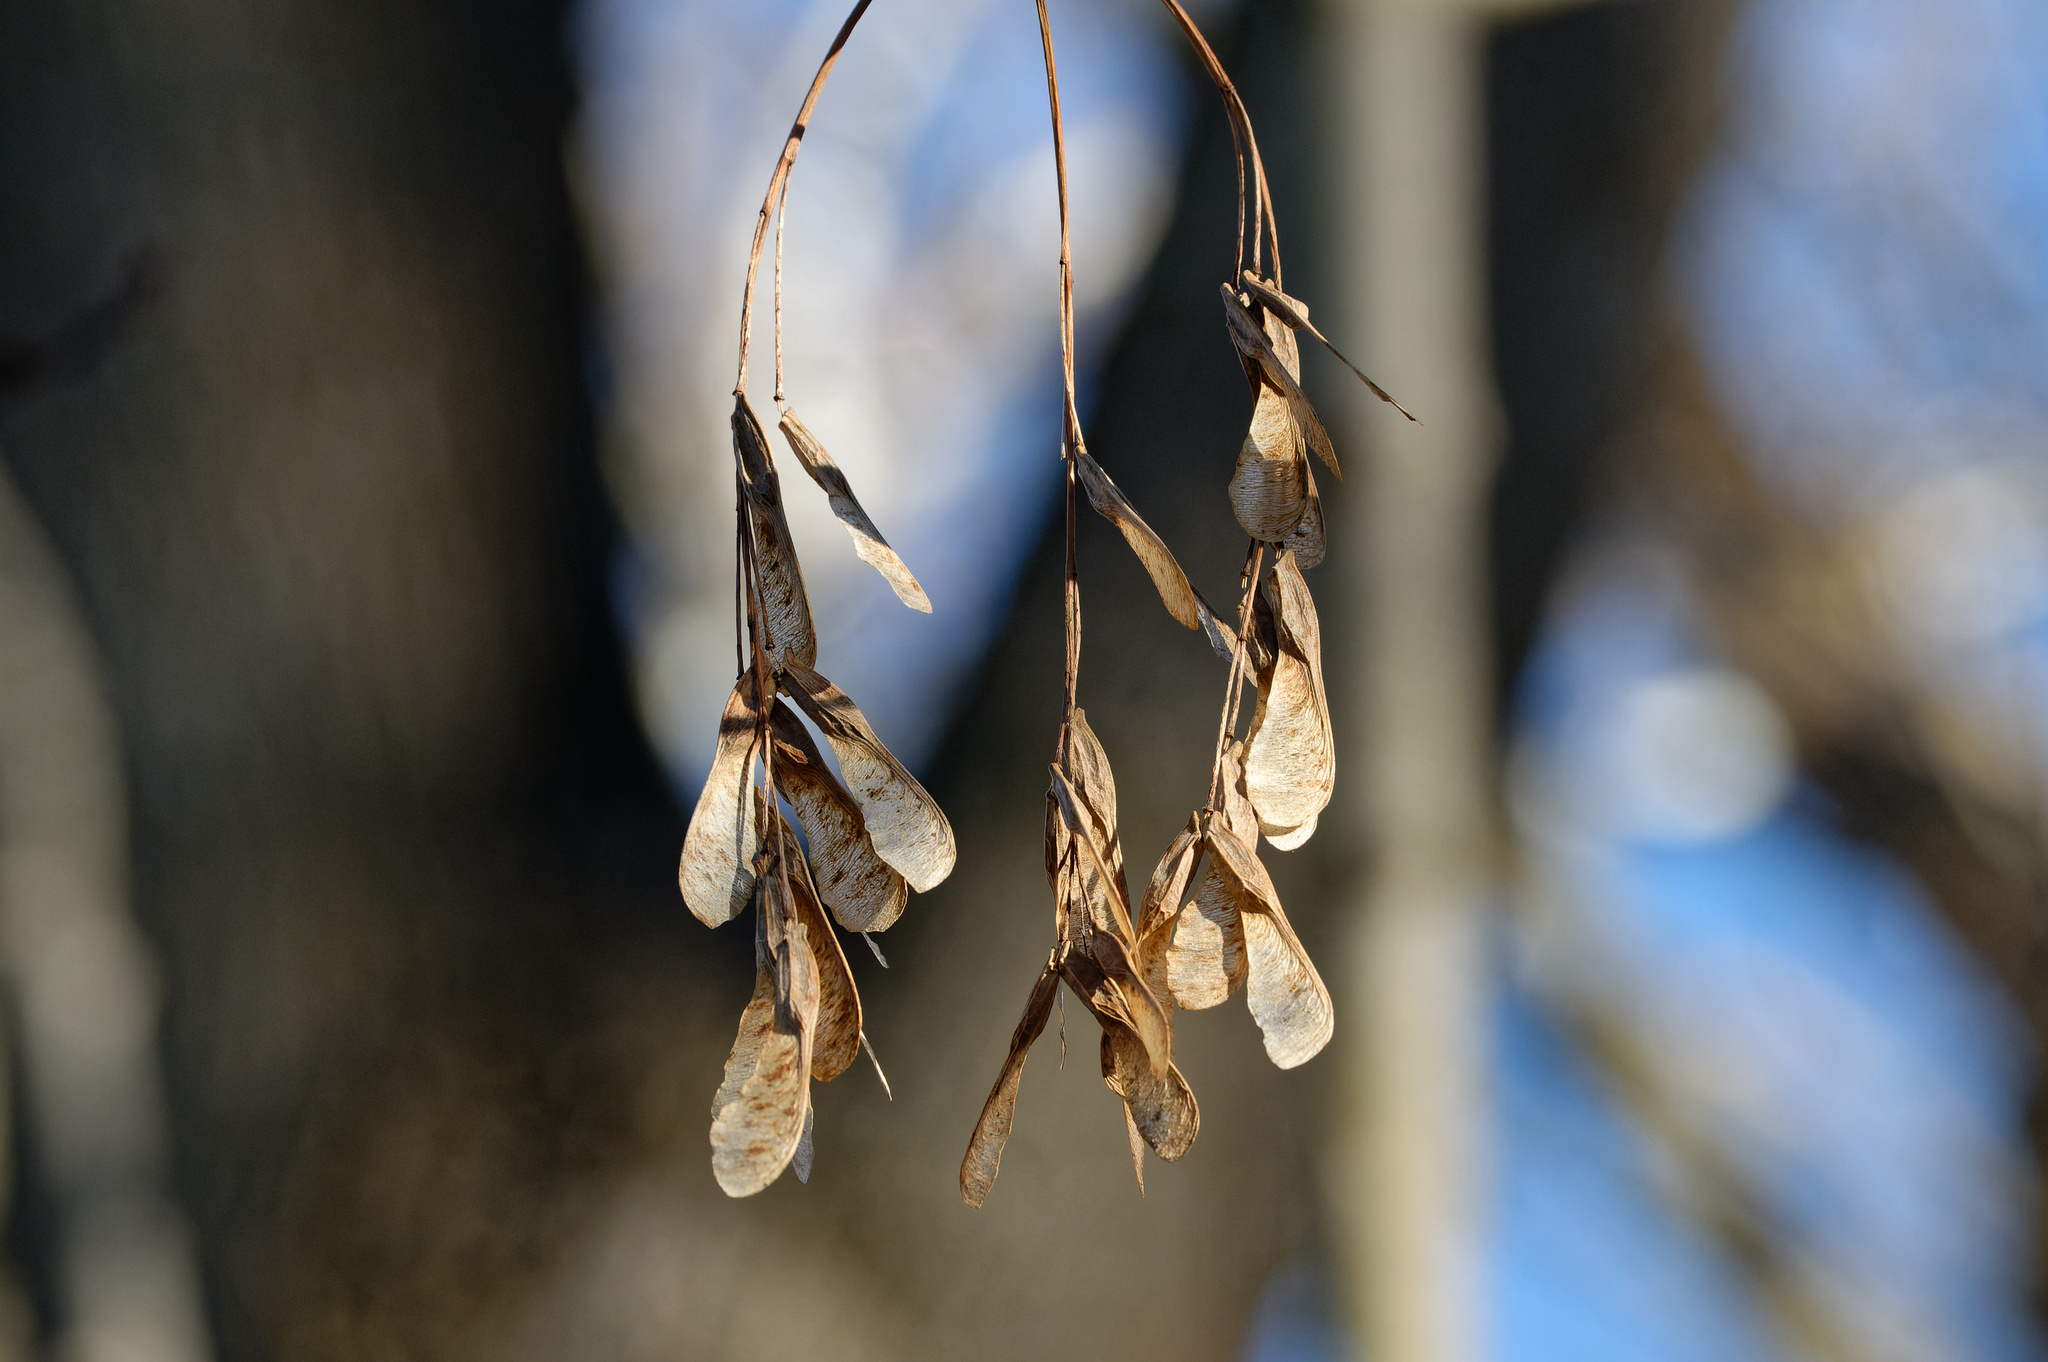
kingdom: Plantae
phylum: Tracheophyta
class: Magnoliopsida
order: Sapindales
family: Sapindaceae
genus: Acer
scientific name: Acer negundo
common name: Ashleaf maple
